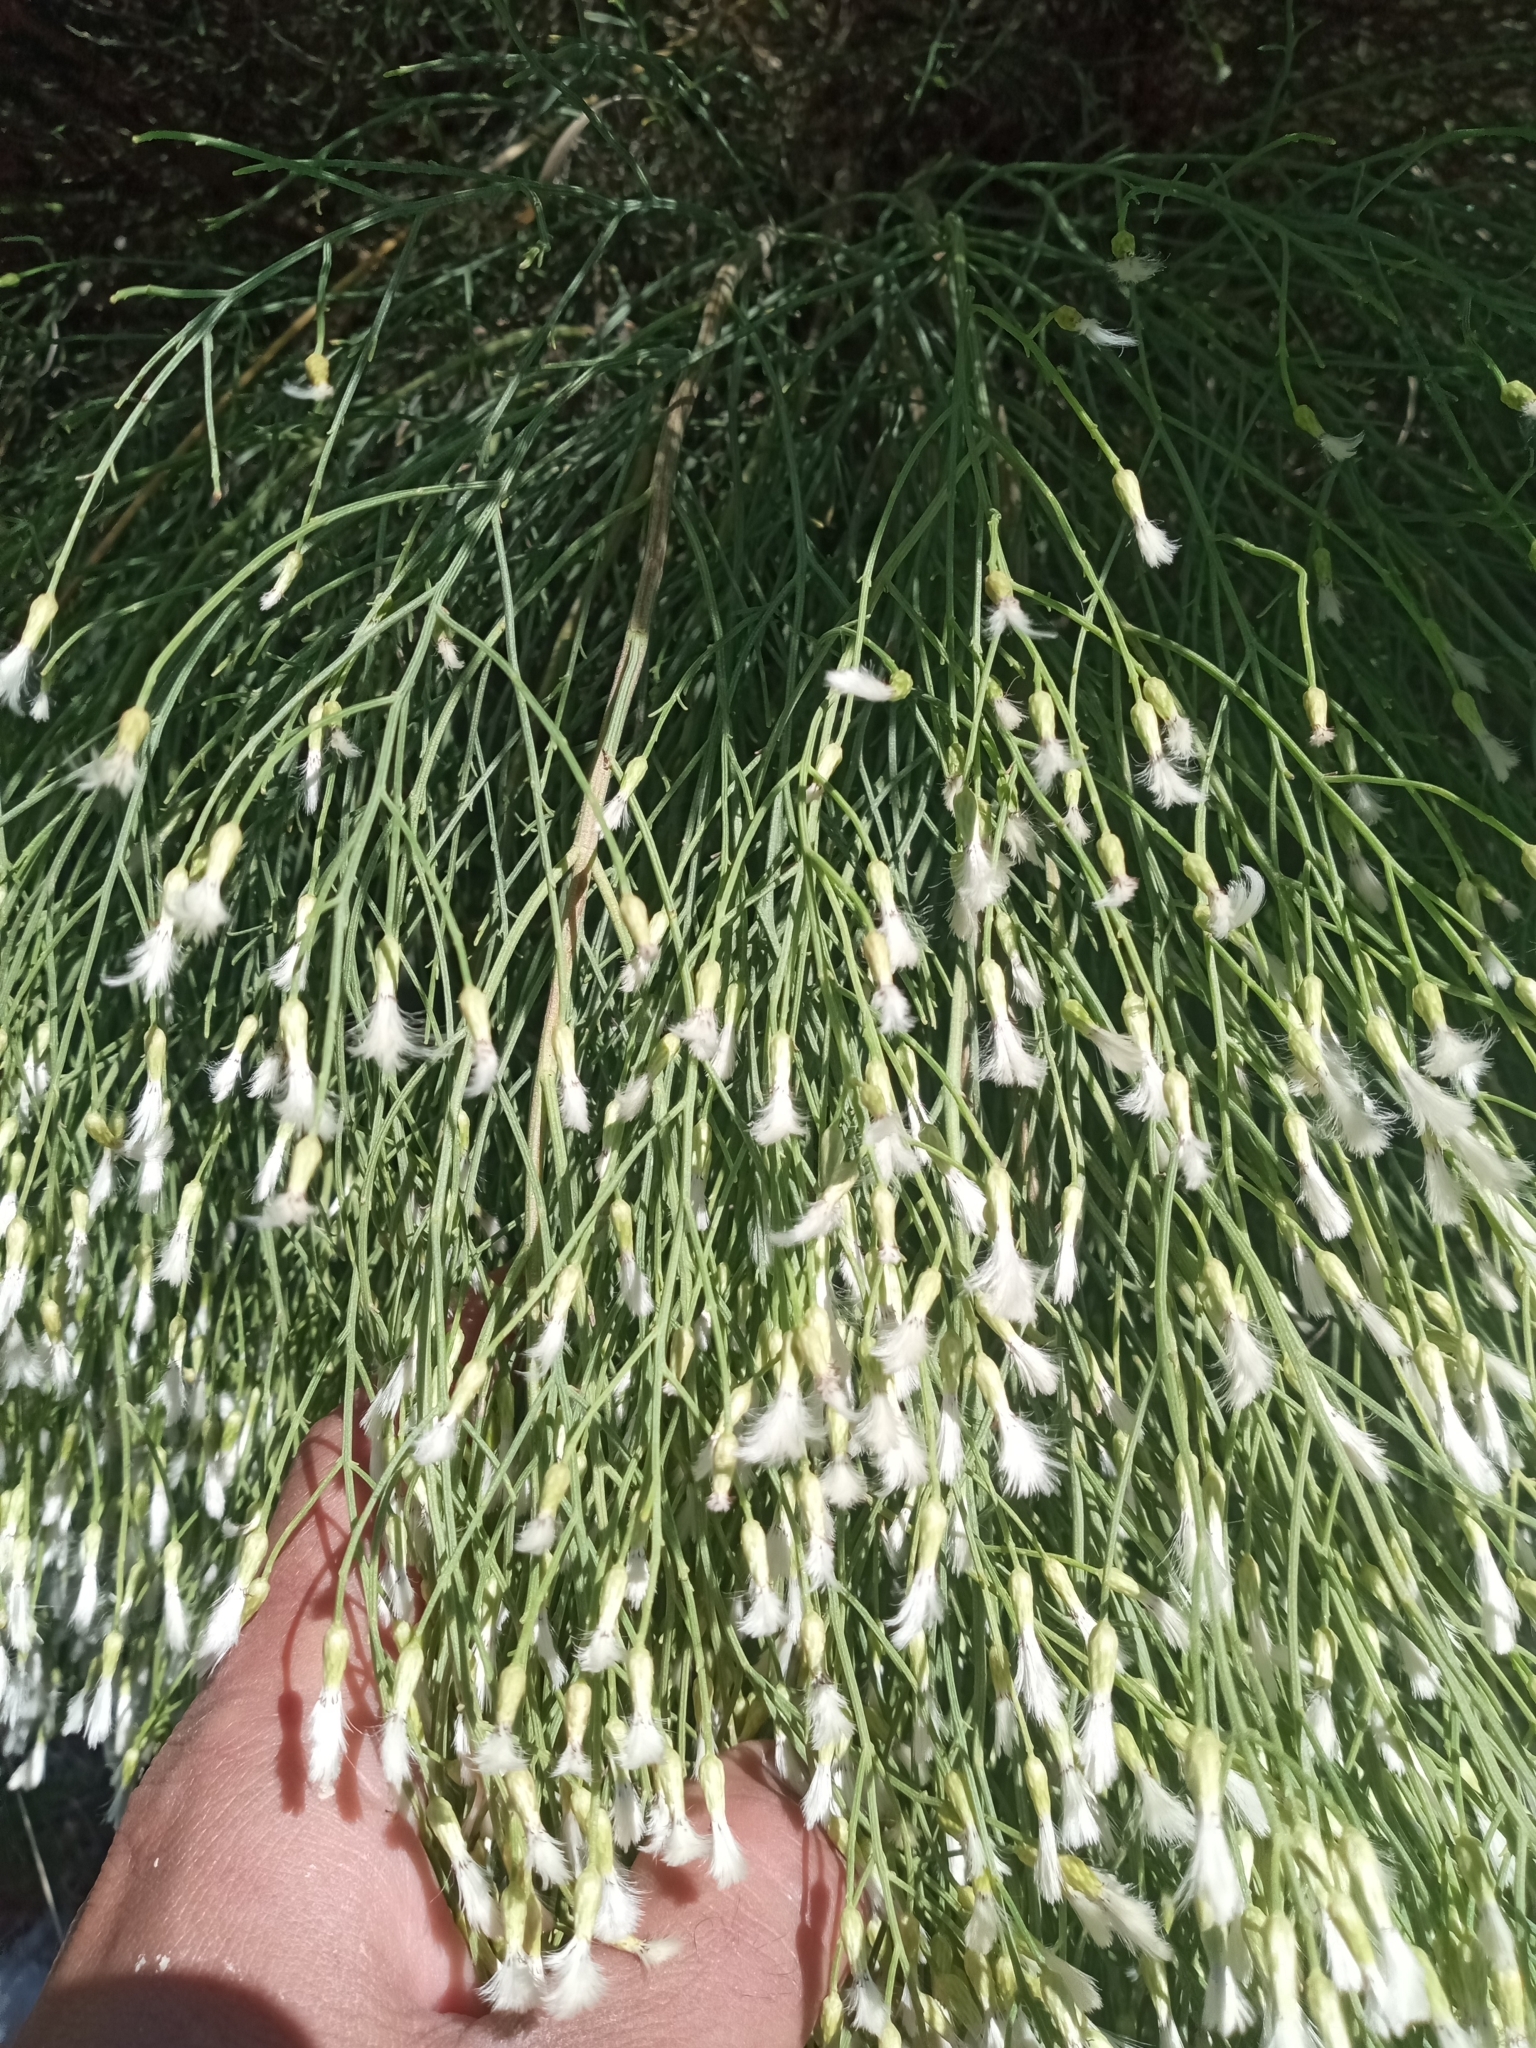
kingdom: Plantae
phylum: Tracheophyta
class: Magnoliopsida
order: Asterales
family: Asteraceae
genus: Baccharis
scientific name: Baccharis notosergila
